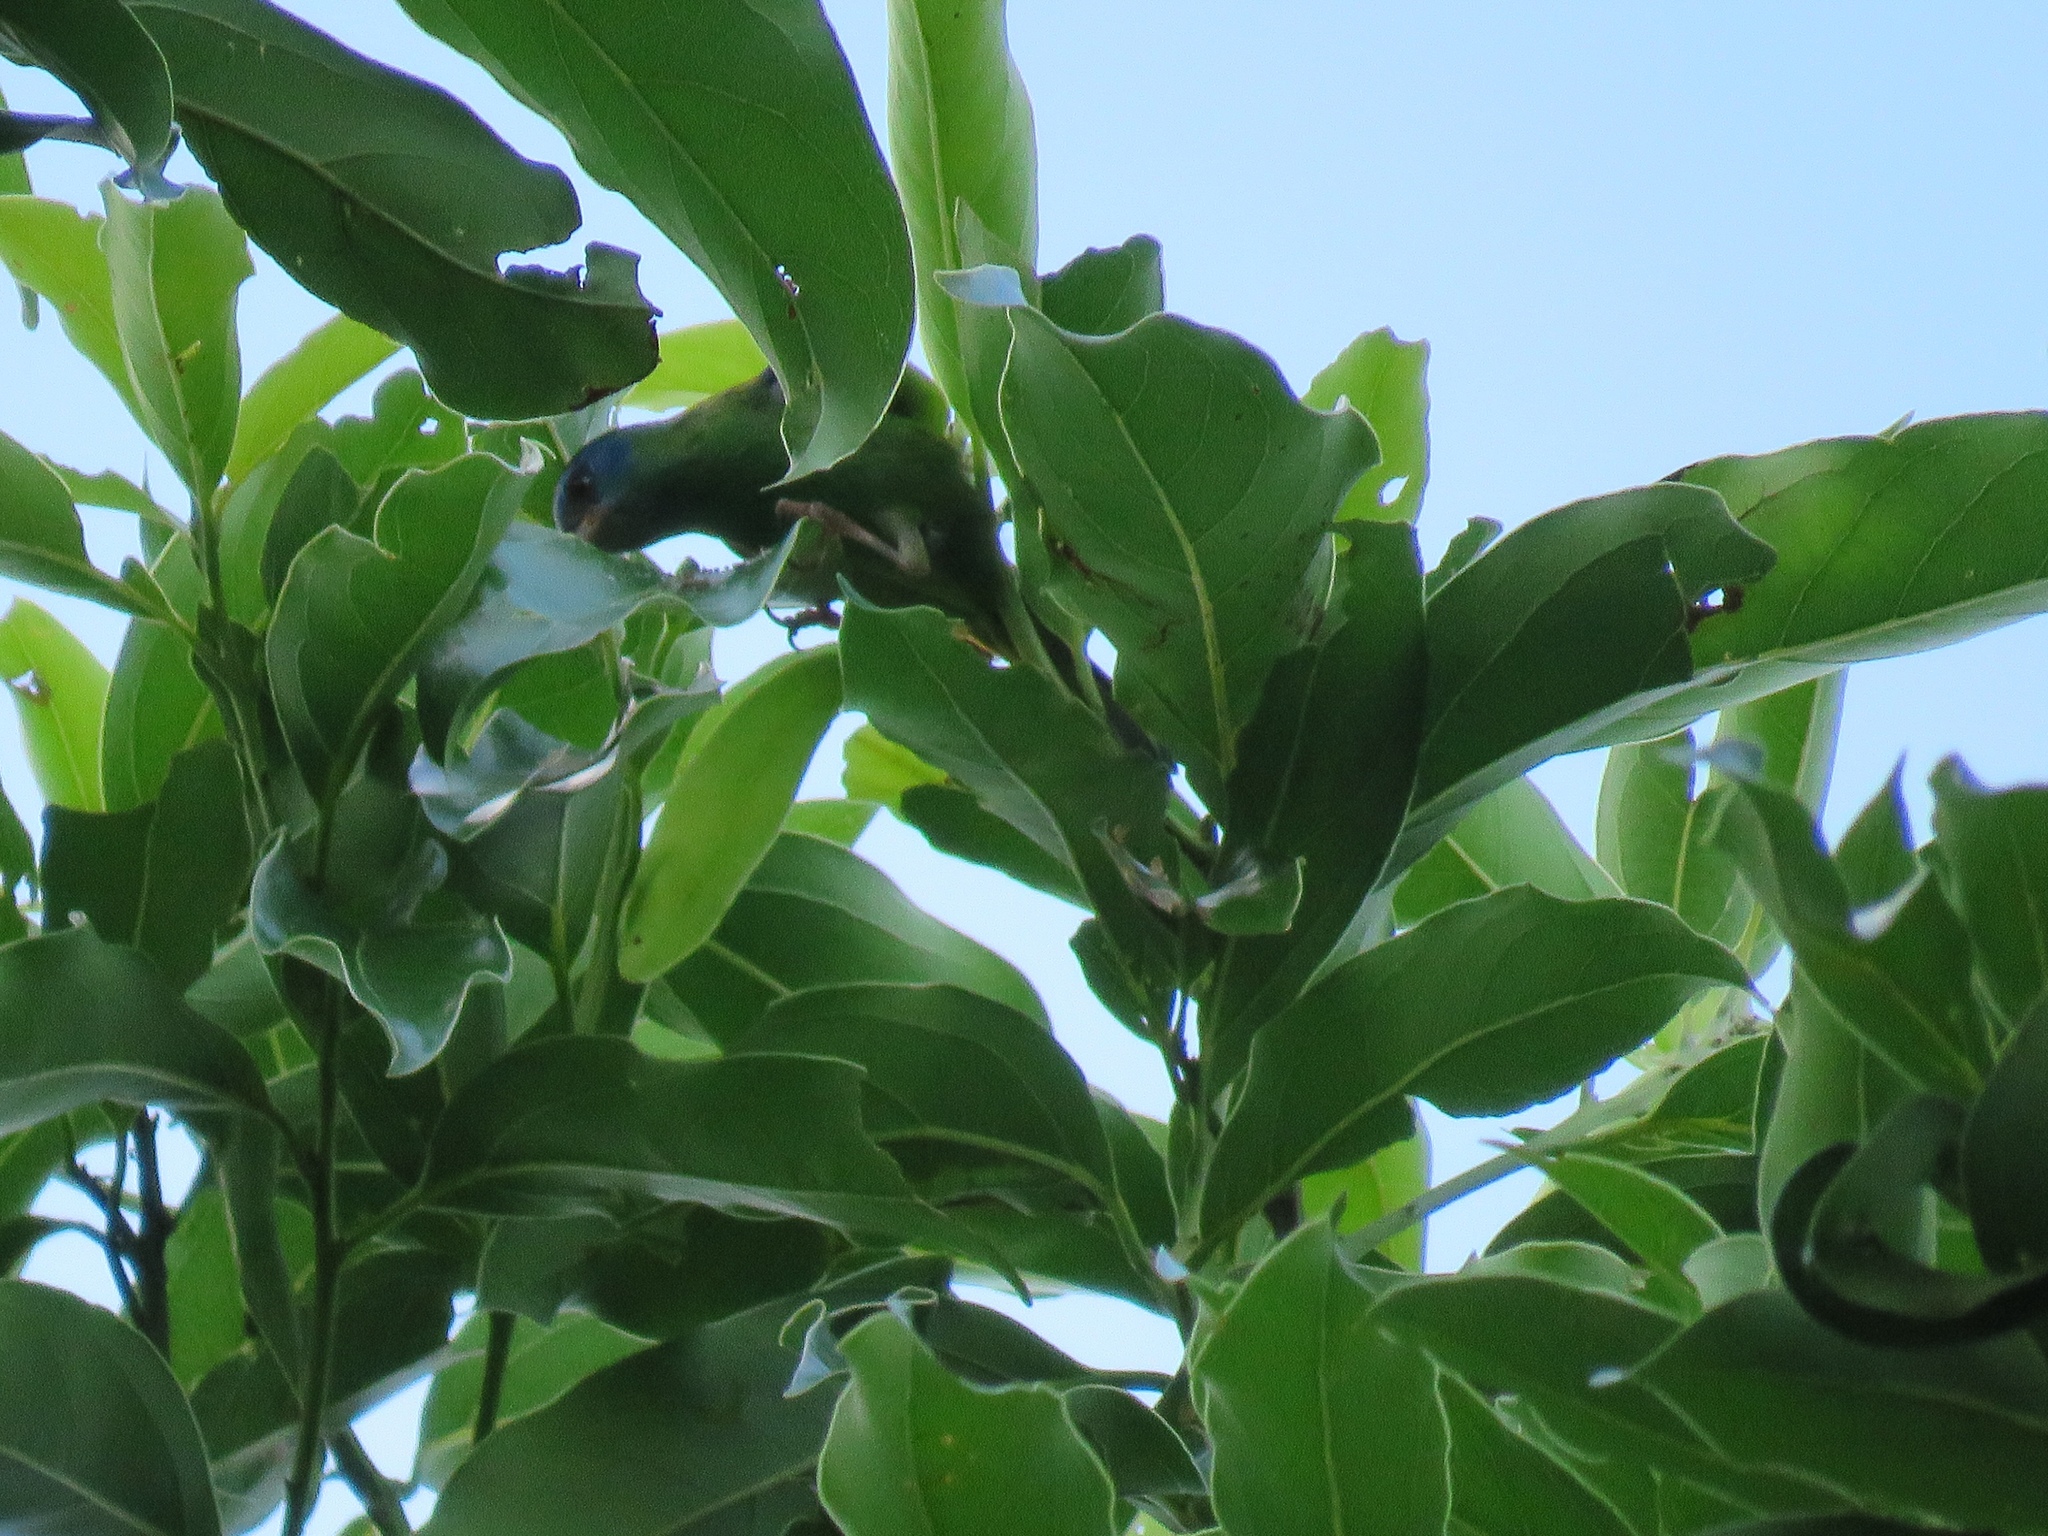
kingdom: Animalia
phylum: Chordata
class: Aves
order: Passeriformes
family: Thraupidae
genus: Dacnis
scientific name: Dacnis cayana
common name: Blue dacnis
